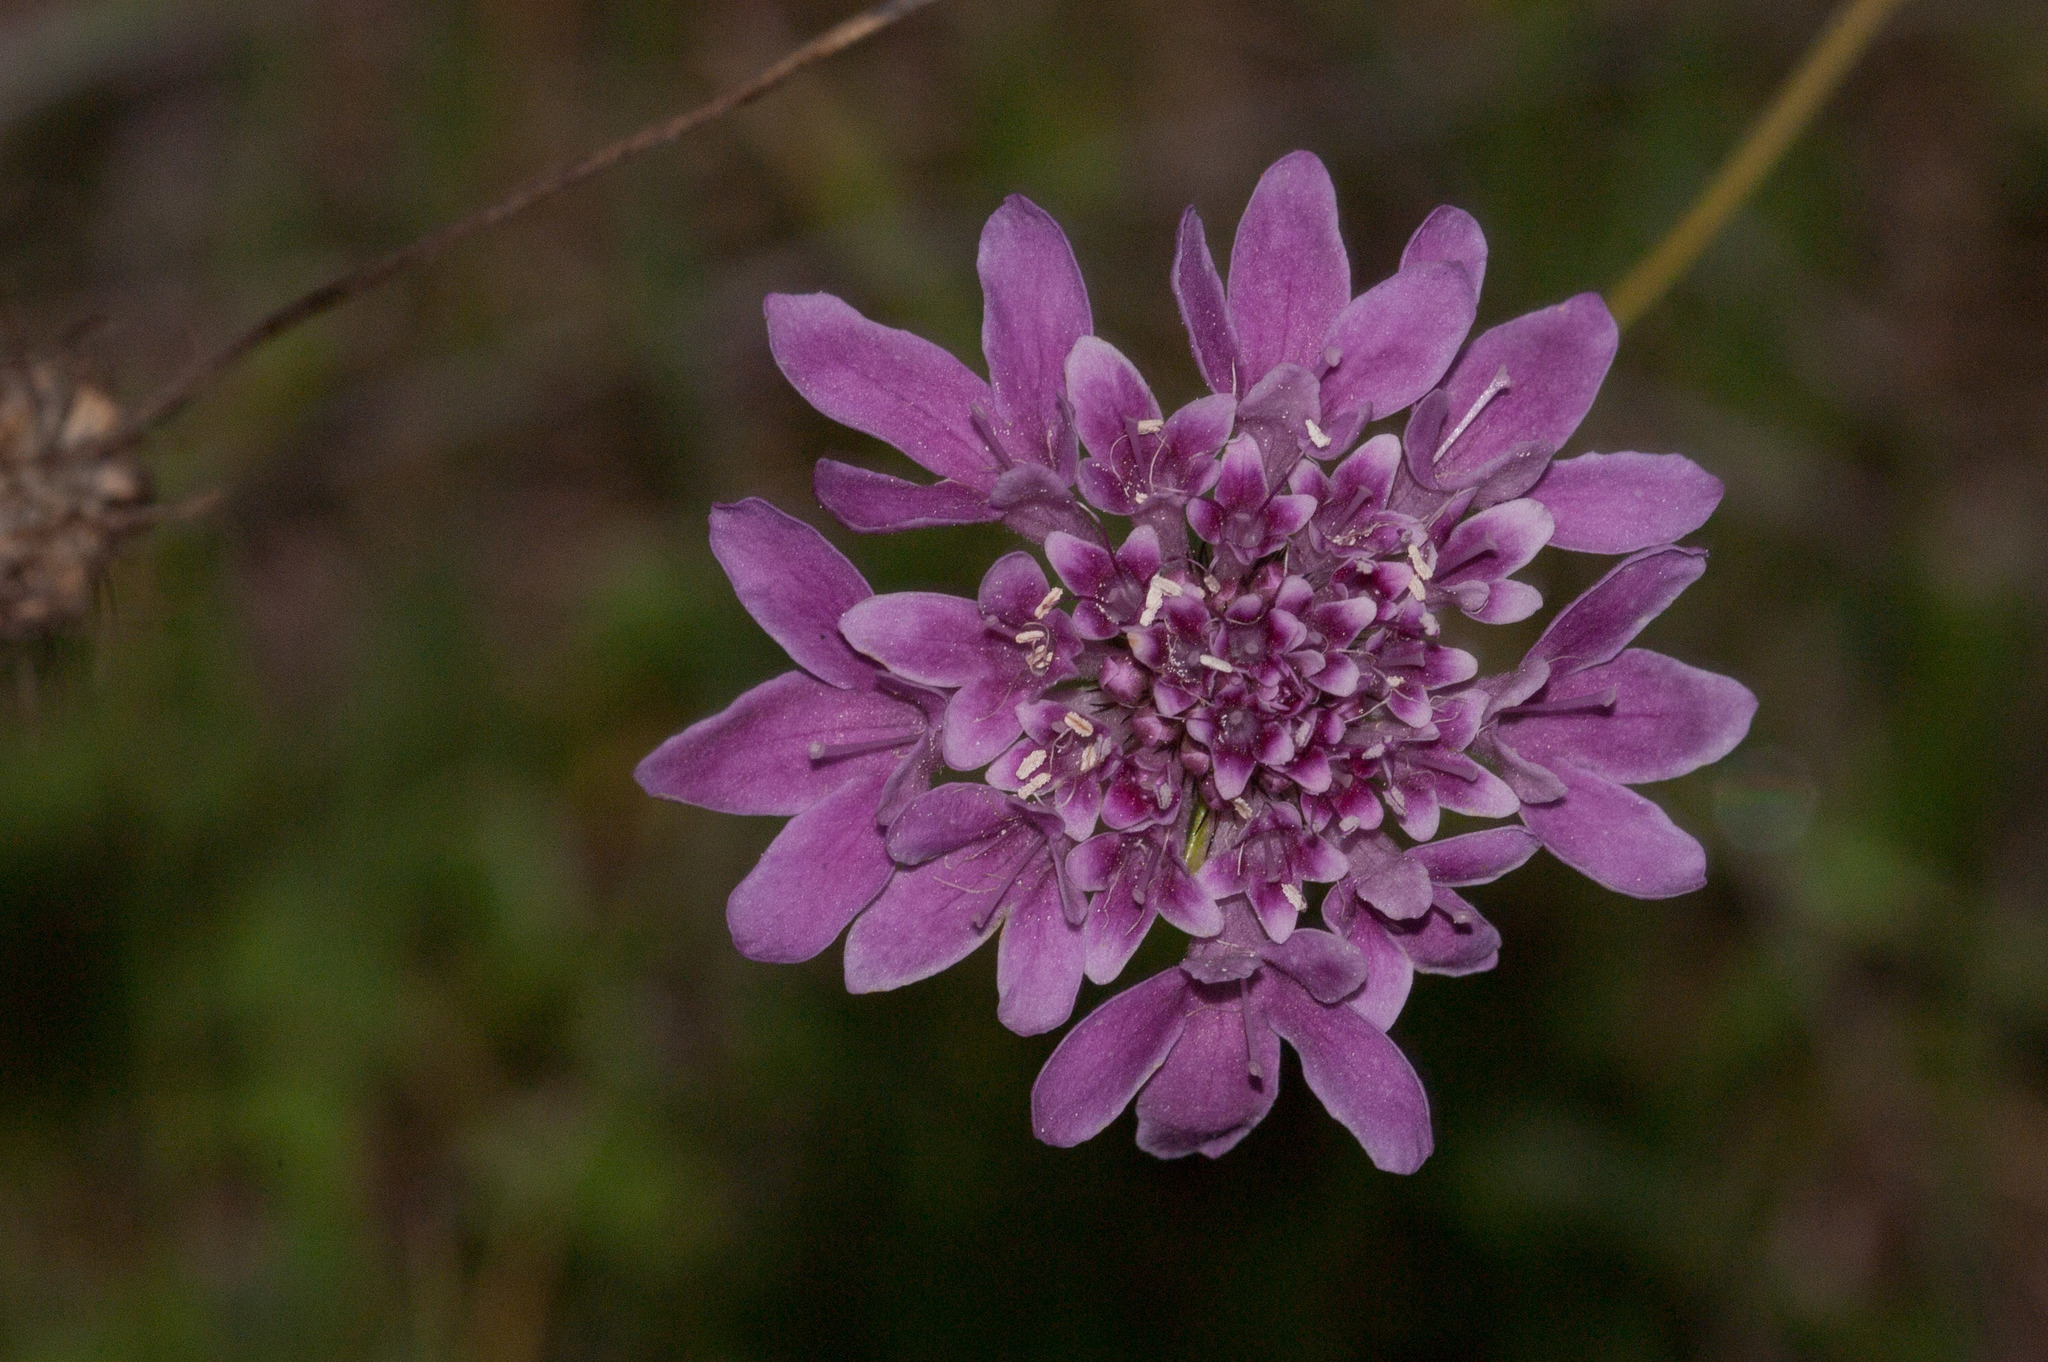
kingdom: Plantae
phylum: Tracheophyta
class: Magnoliopsida
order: Dipsacales
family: Caprifoliaceae
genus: Sixalix
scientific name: Sixalix atropurpurea
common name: Sweet scabious
